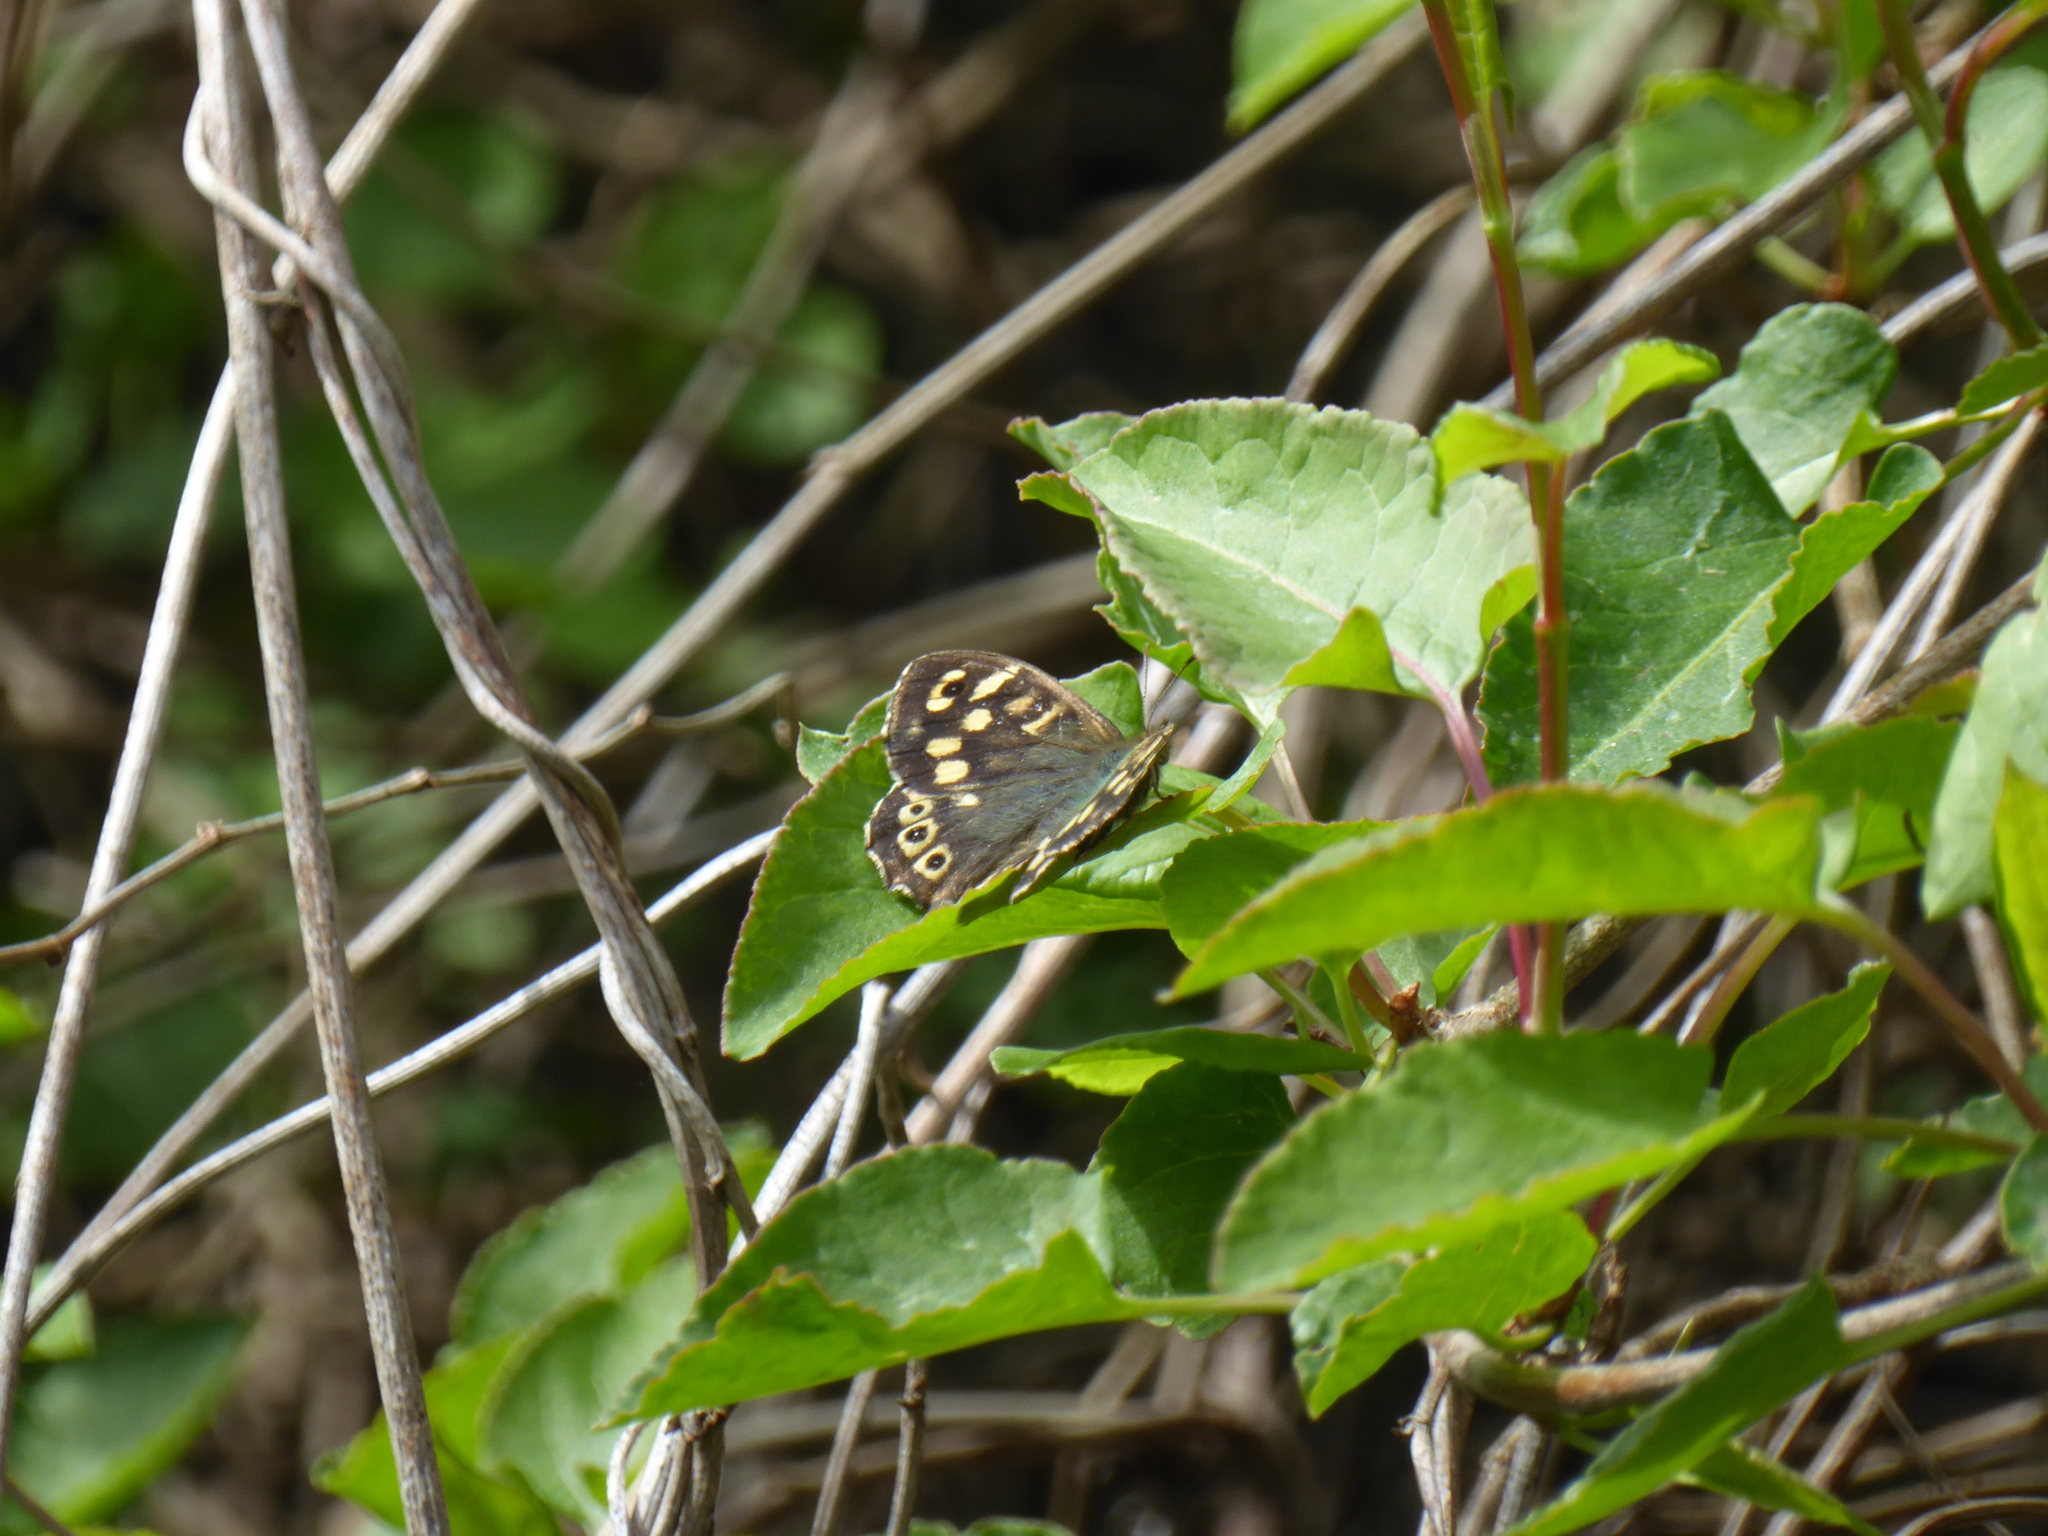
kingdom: Animalia
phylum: Arthropoda
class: Insecta
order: Lepidoptera
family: Nymphalidae
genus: Pararge
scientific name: Pararge aegeria
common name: Speckled wood
